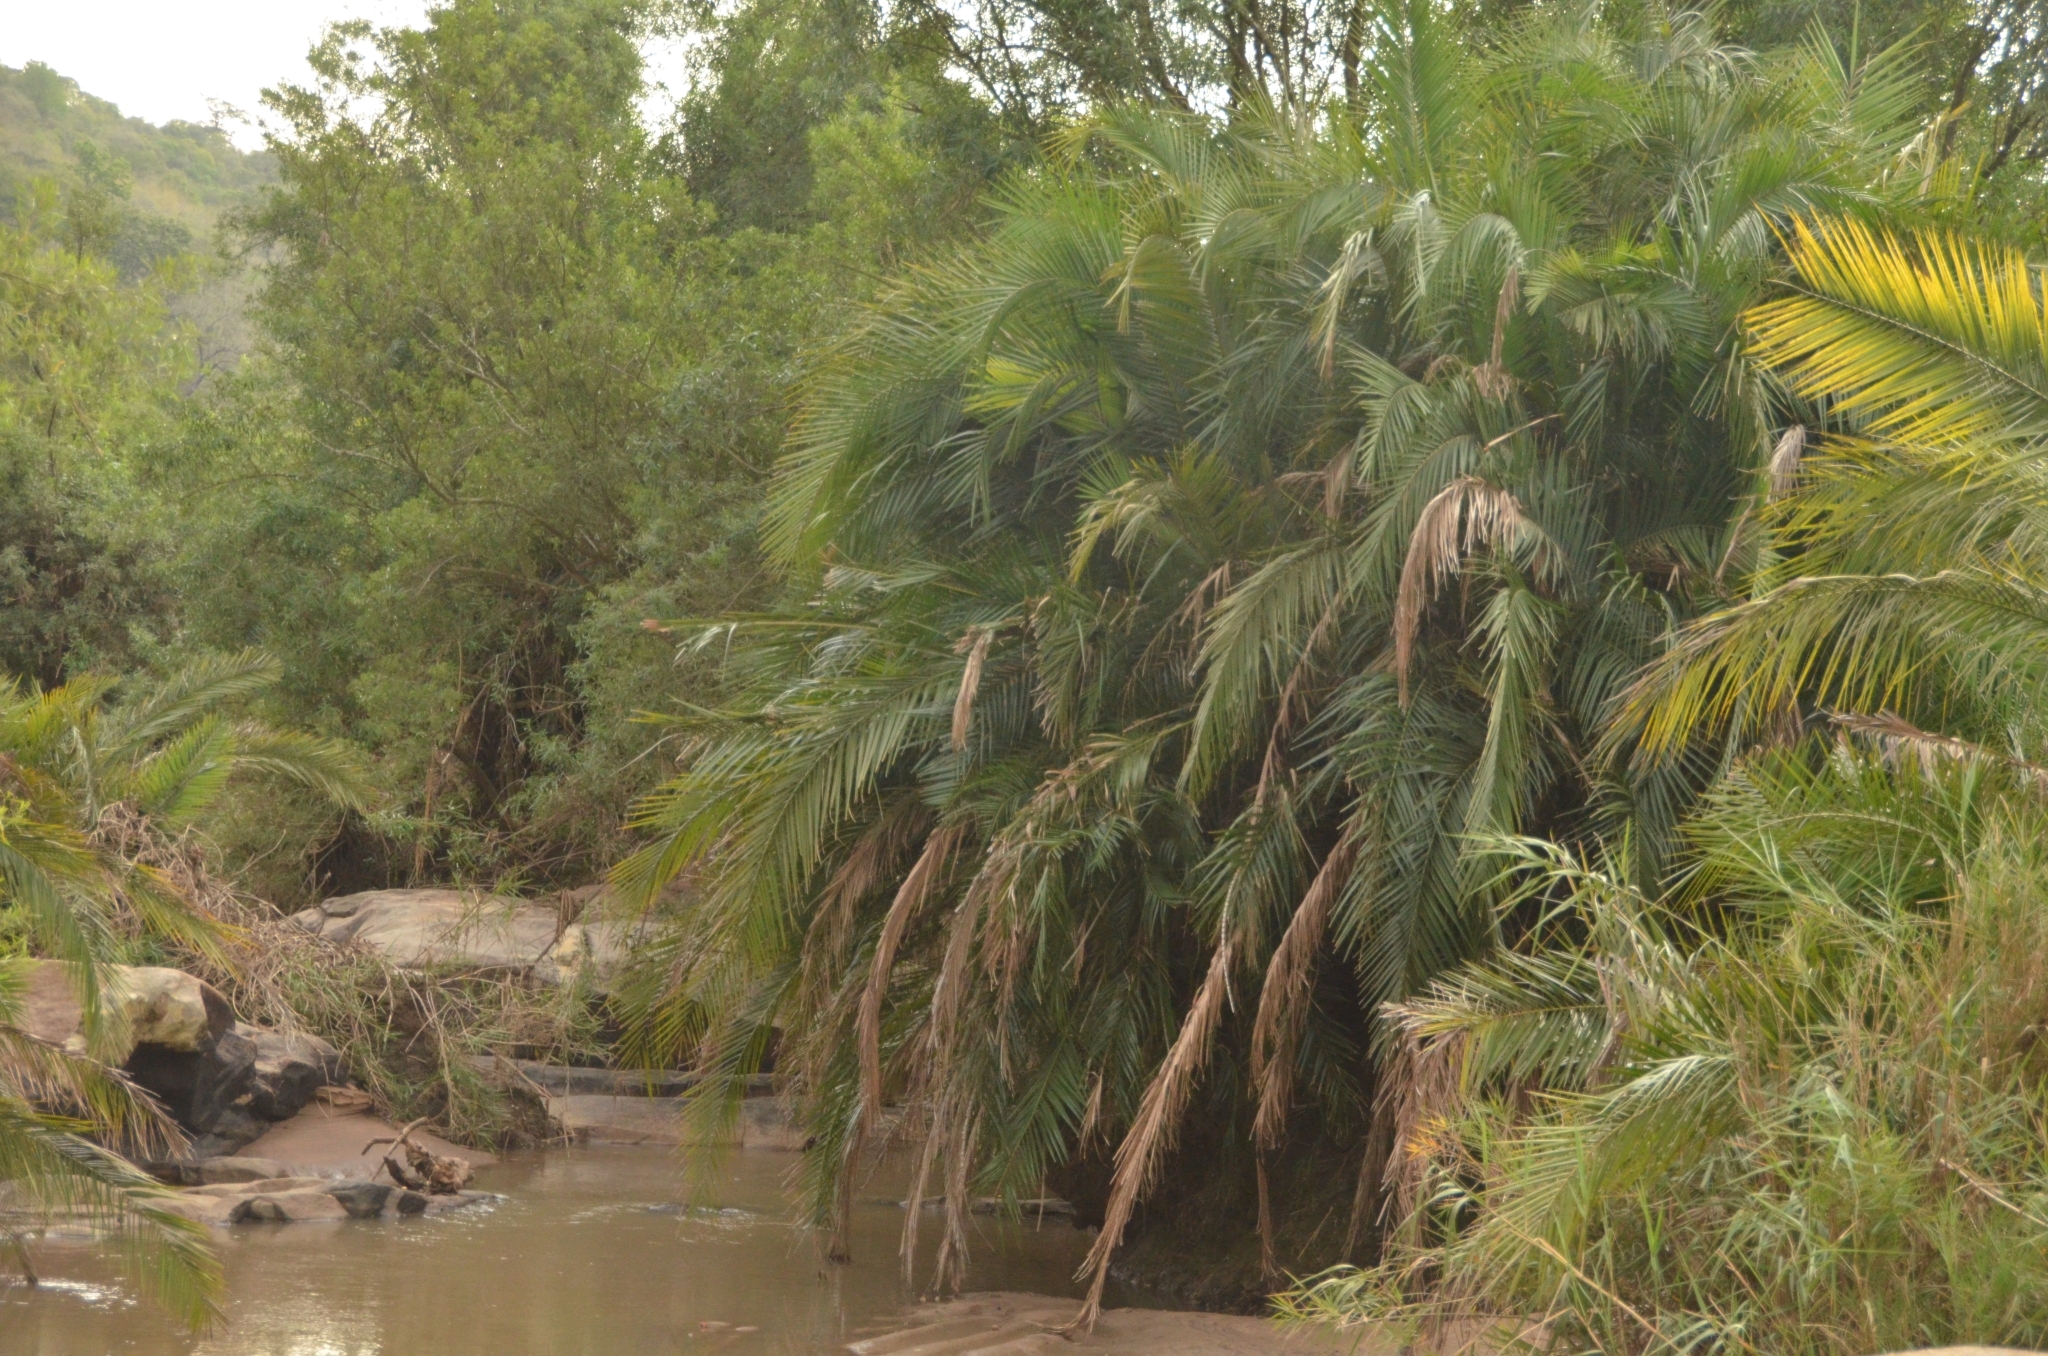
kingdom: Plantae
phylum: Tracheophyta
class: Liliopsida
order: Arecales
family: Arecaceae
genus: Phoenix
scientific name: Phoenix reclinata
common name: Senegal date palm
